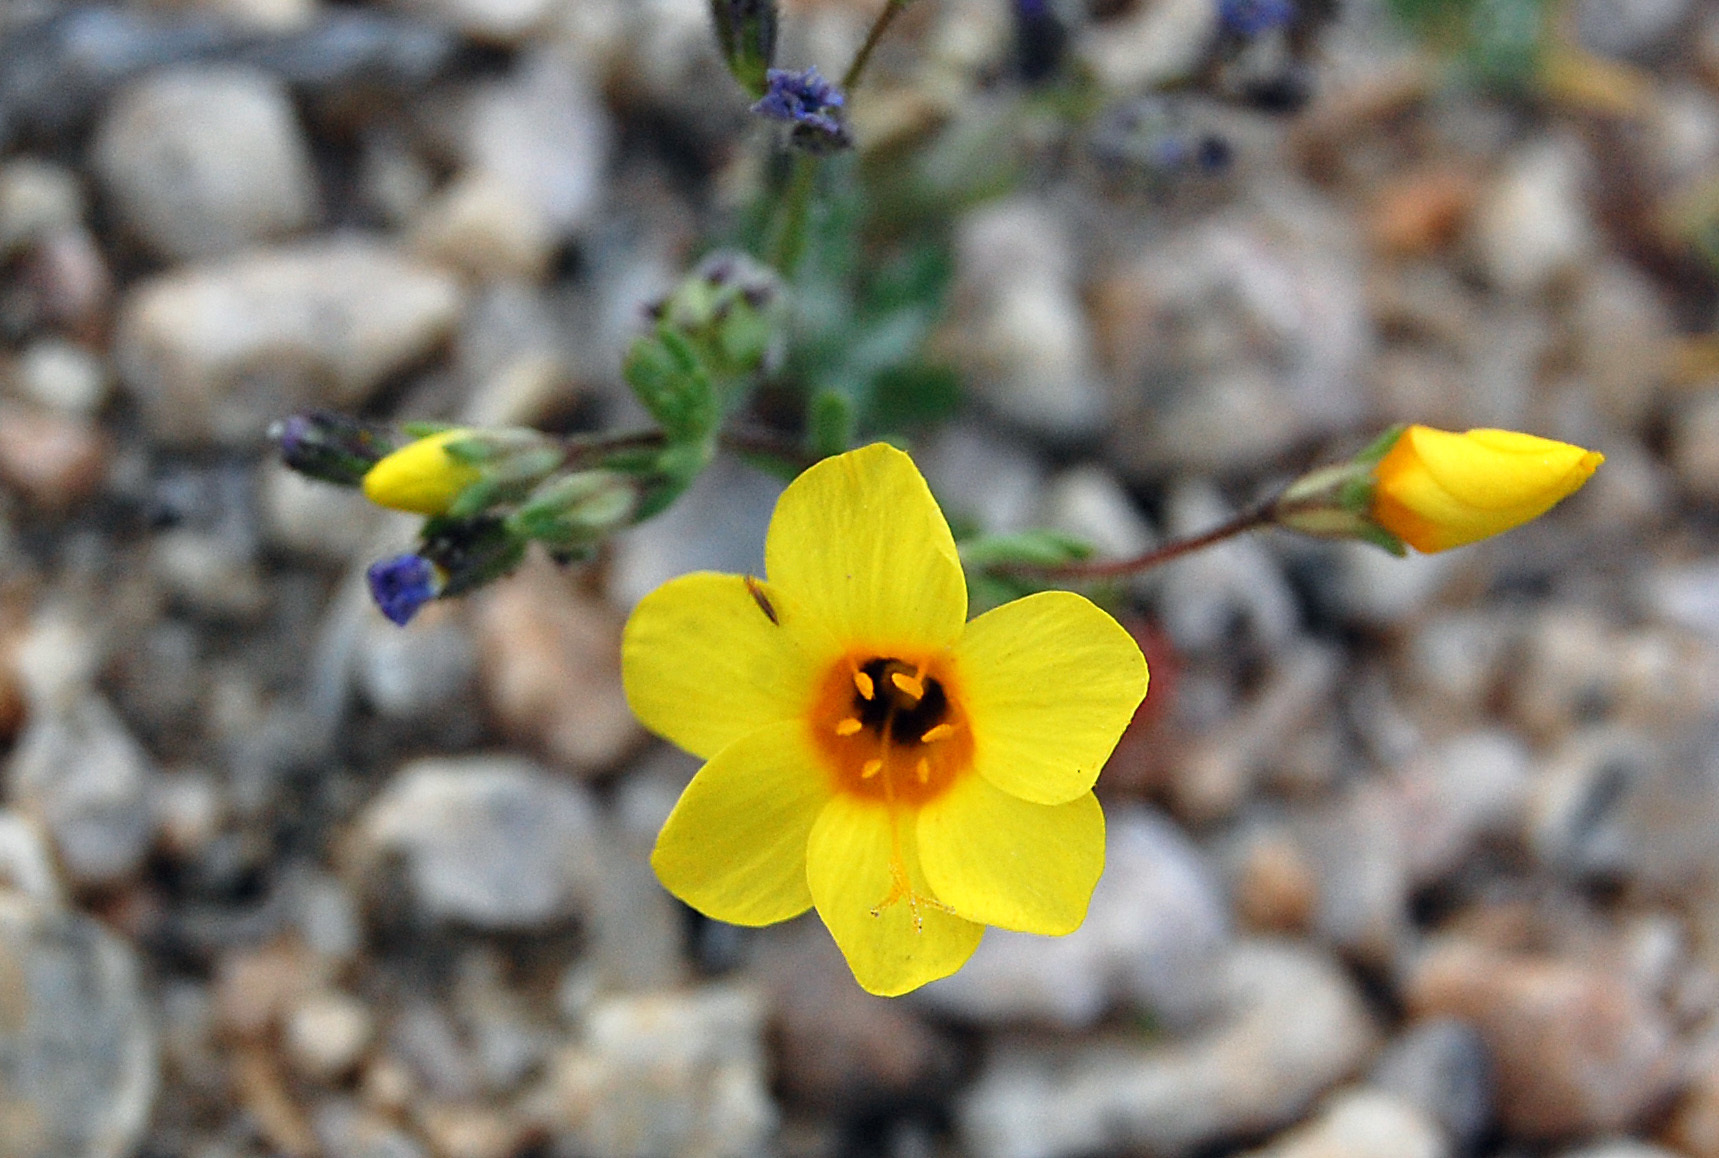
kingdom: Plantae
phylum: Tracheophyta
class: Magnoliopsida
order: Ericales
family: Polemoniaceae
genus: Leptosiphon
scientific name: Leptosiphon chrysanthus
